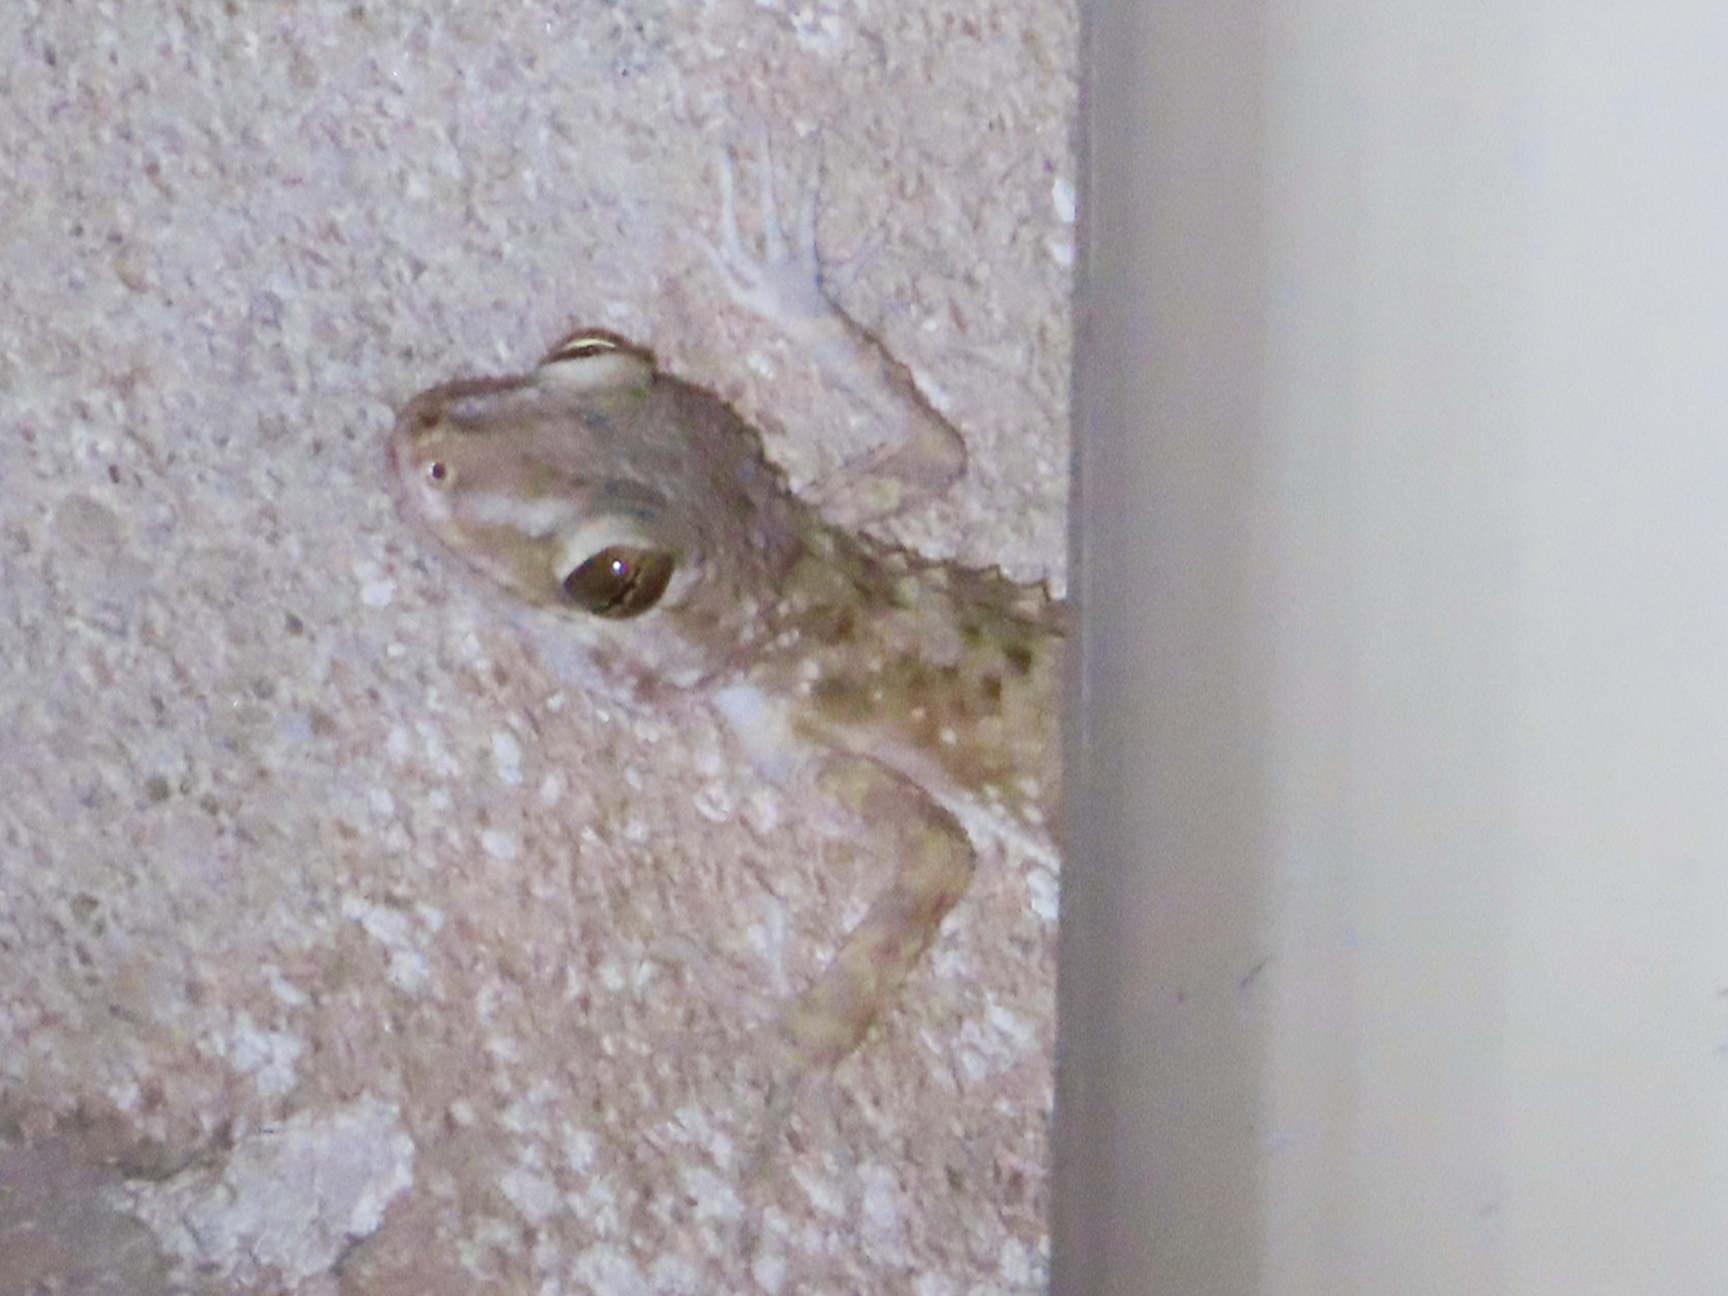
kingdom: Animalia
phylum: Chordata
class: Squamata
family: Gekkonidae
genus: Tenuidactylus
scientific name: Tenuidactylus caspius
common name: Caspian bent-toed gecko
